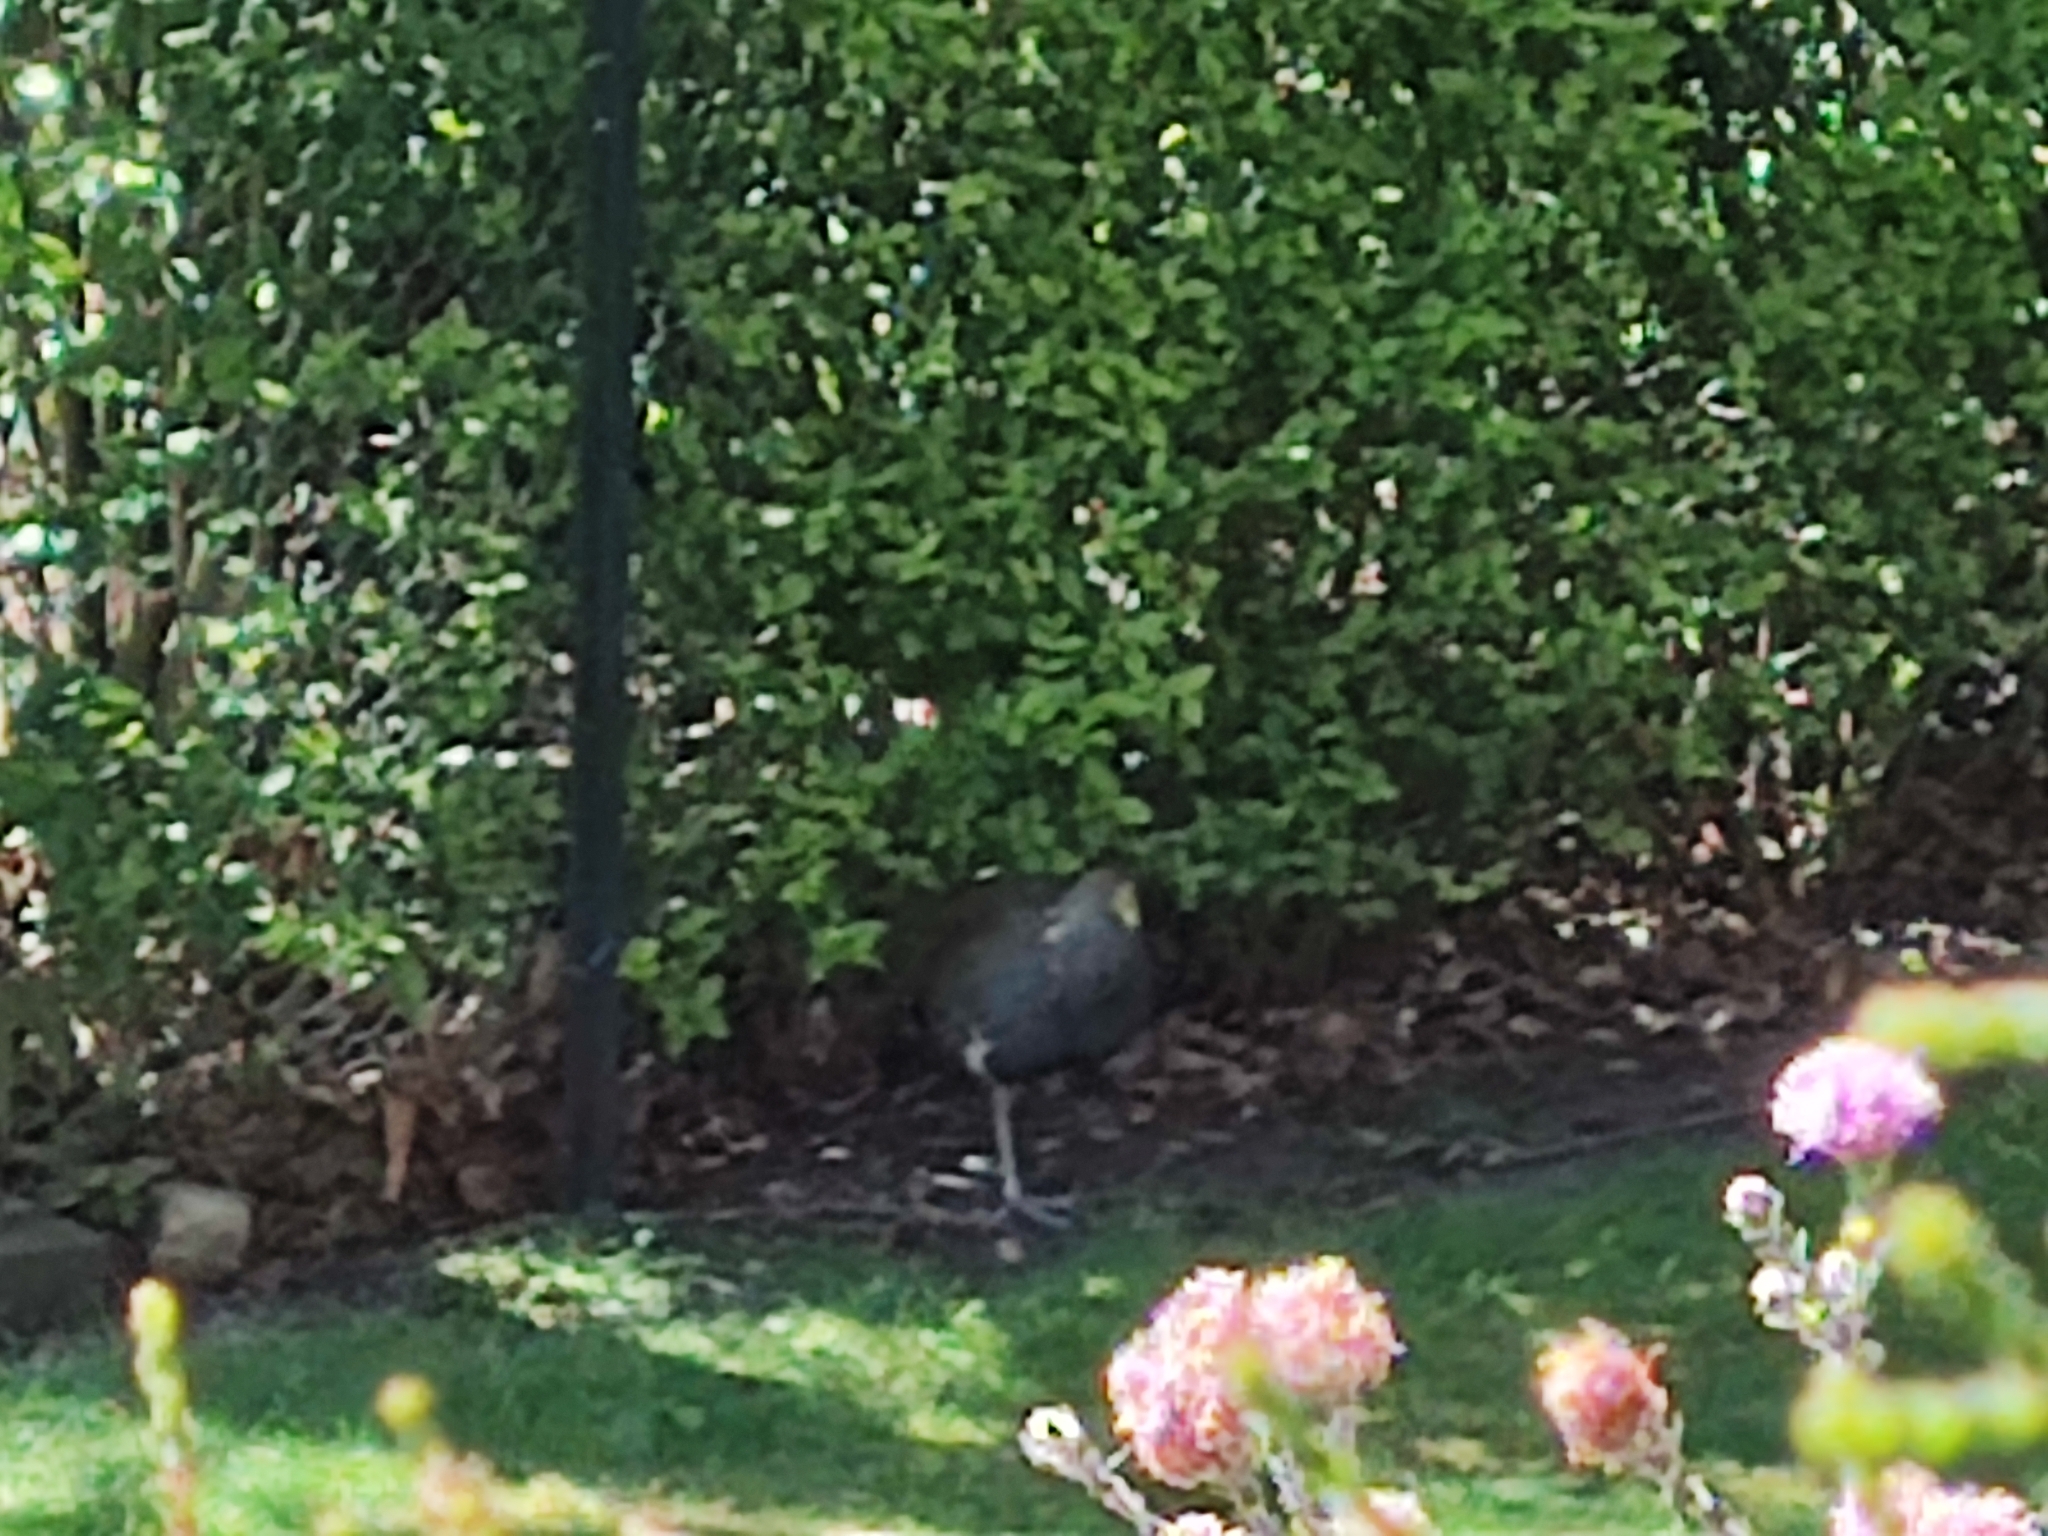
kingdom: Animalia
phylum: Chordata
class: Aves
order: Gruiformes
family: Rallidae
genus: Gallinula
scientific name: Gallinula mortierii
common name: Tasmanian nativehen
